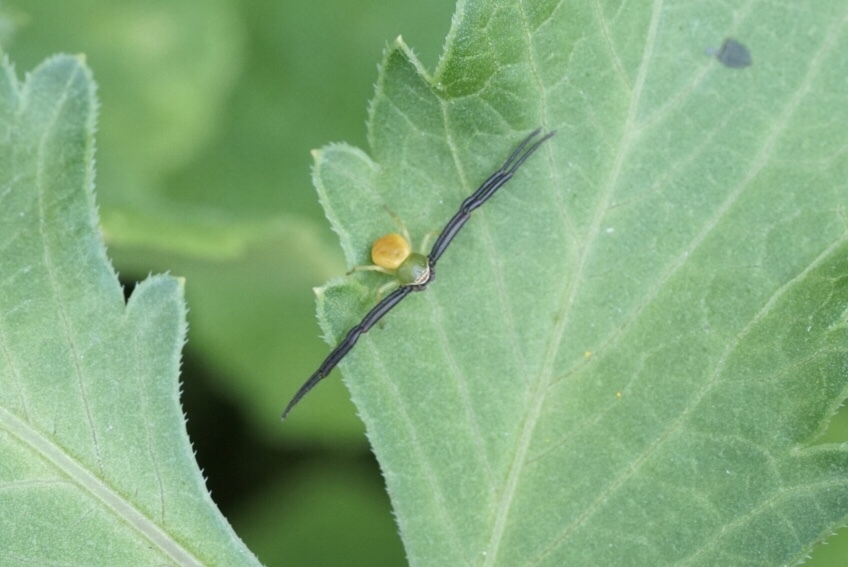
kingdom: Animalia
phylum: Arthropoda
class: Arachnida
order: Araneae
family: Thomisidae
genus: Misumenoides
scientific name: Misumenoides formosipes
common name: White-banded crab spider
